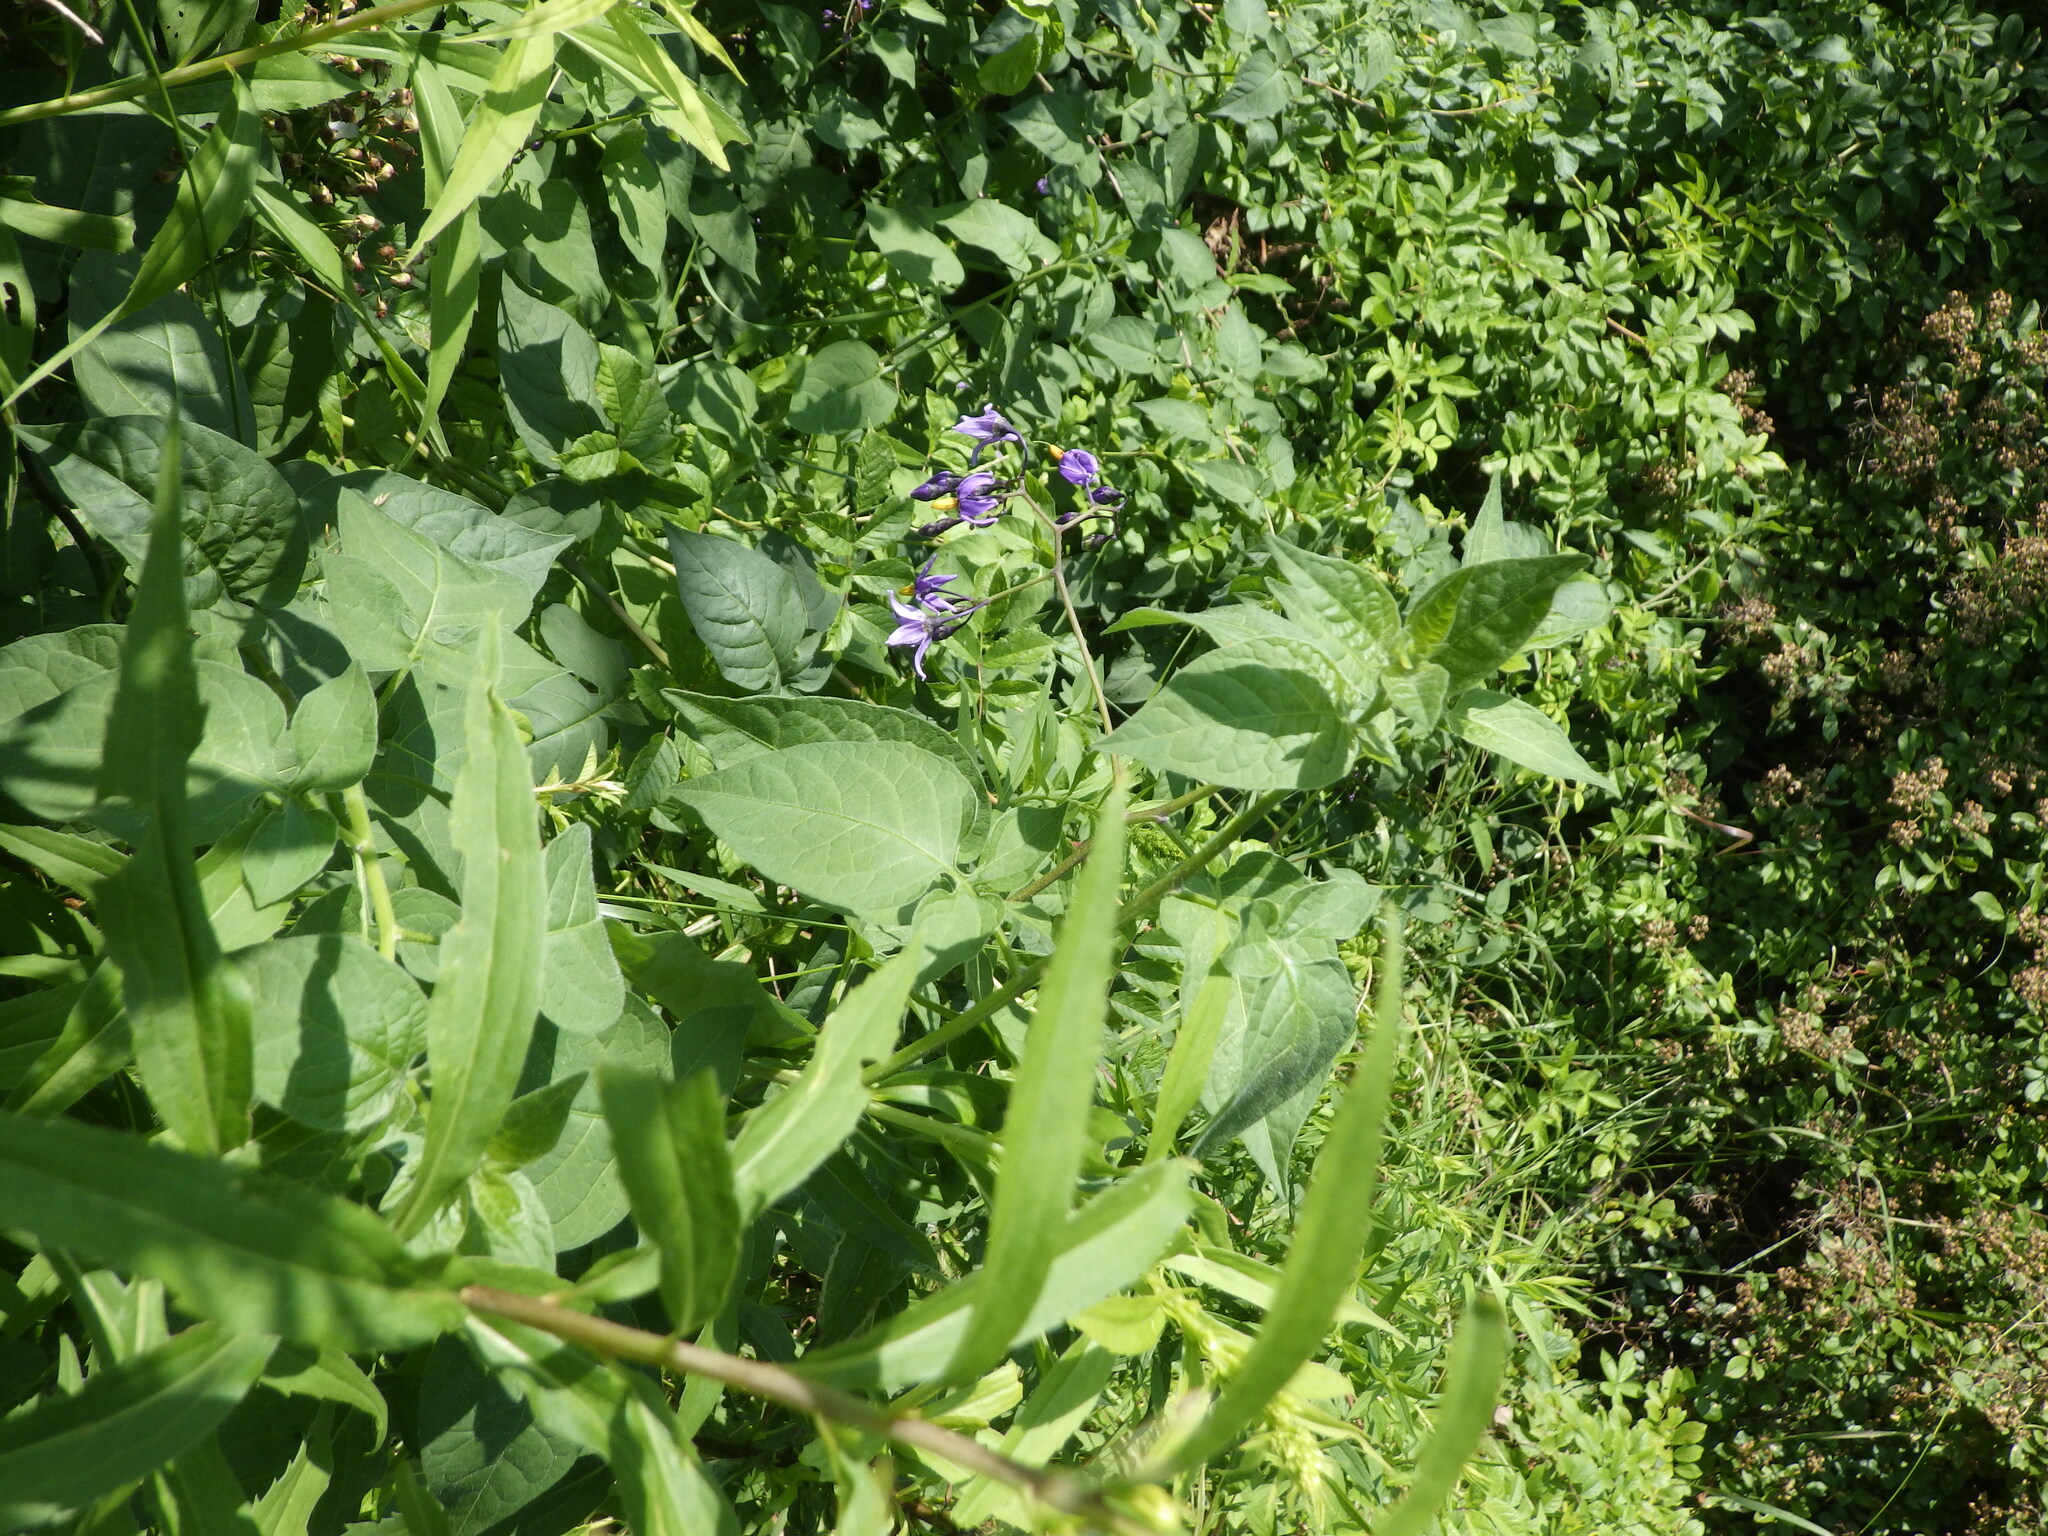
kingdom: Plantae
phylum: Tracheophyta
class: Magnoliopsida
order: Solanales
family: Solanaceae
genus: Solanum
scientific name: Solanum dulcamara
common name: Climbing nightshade
